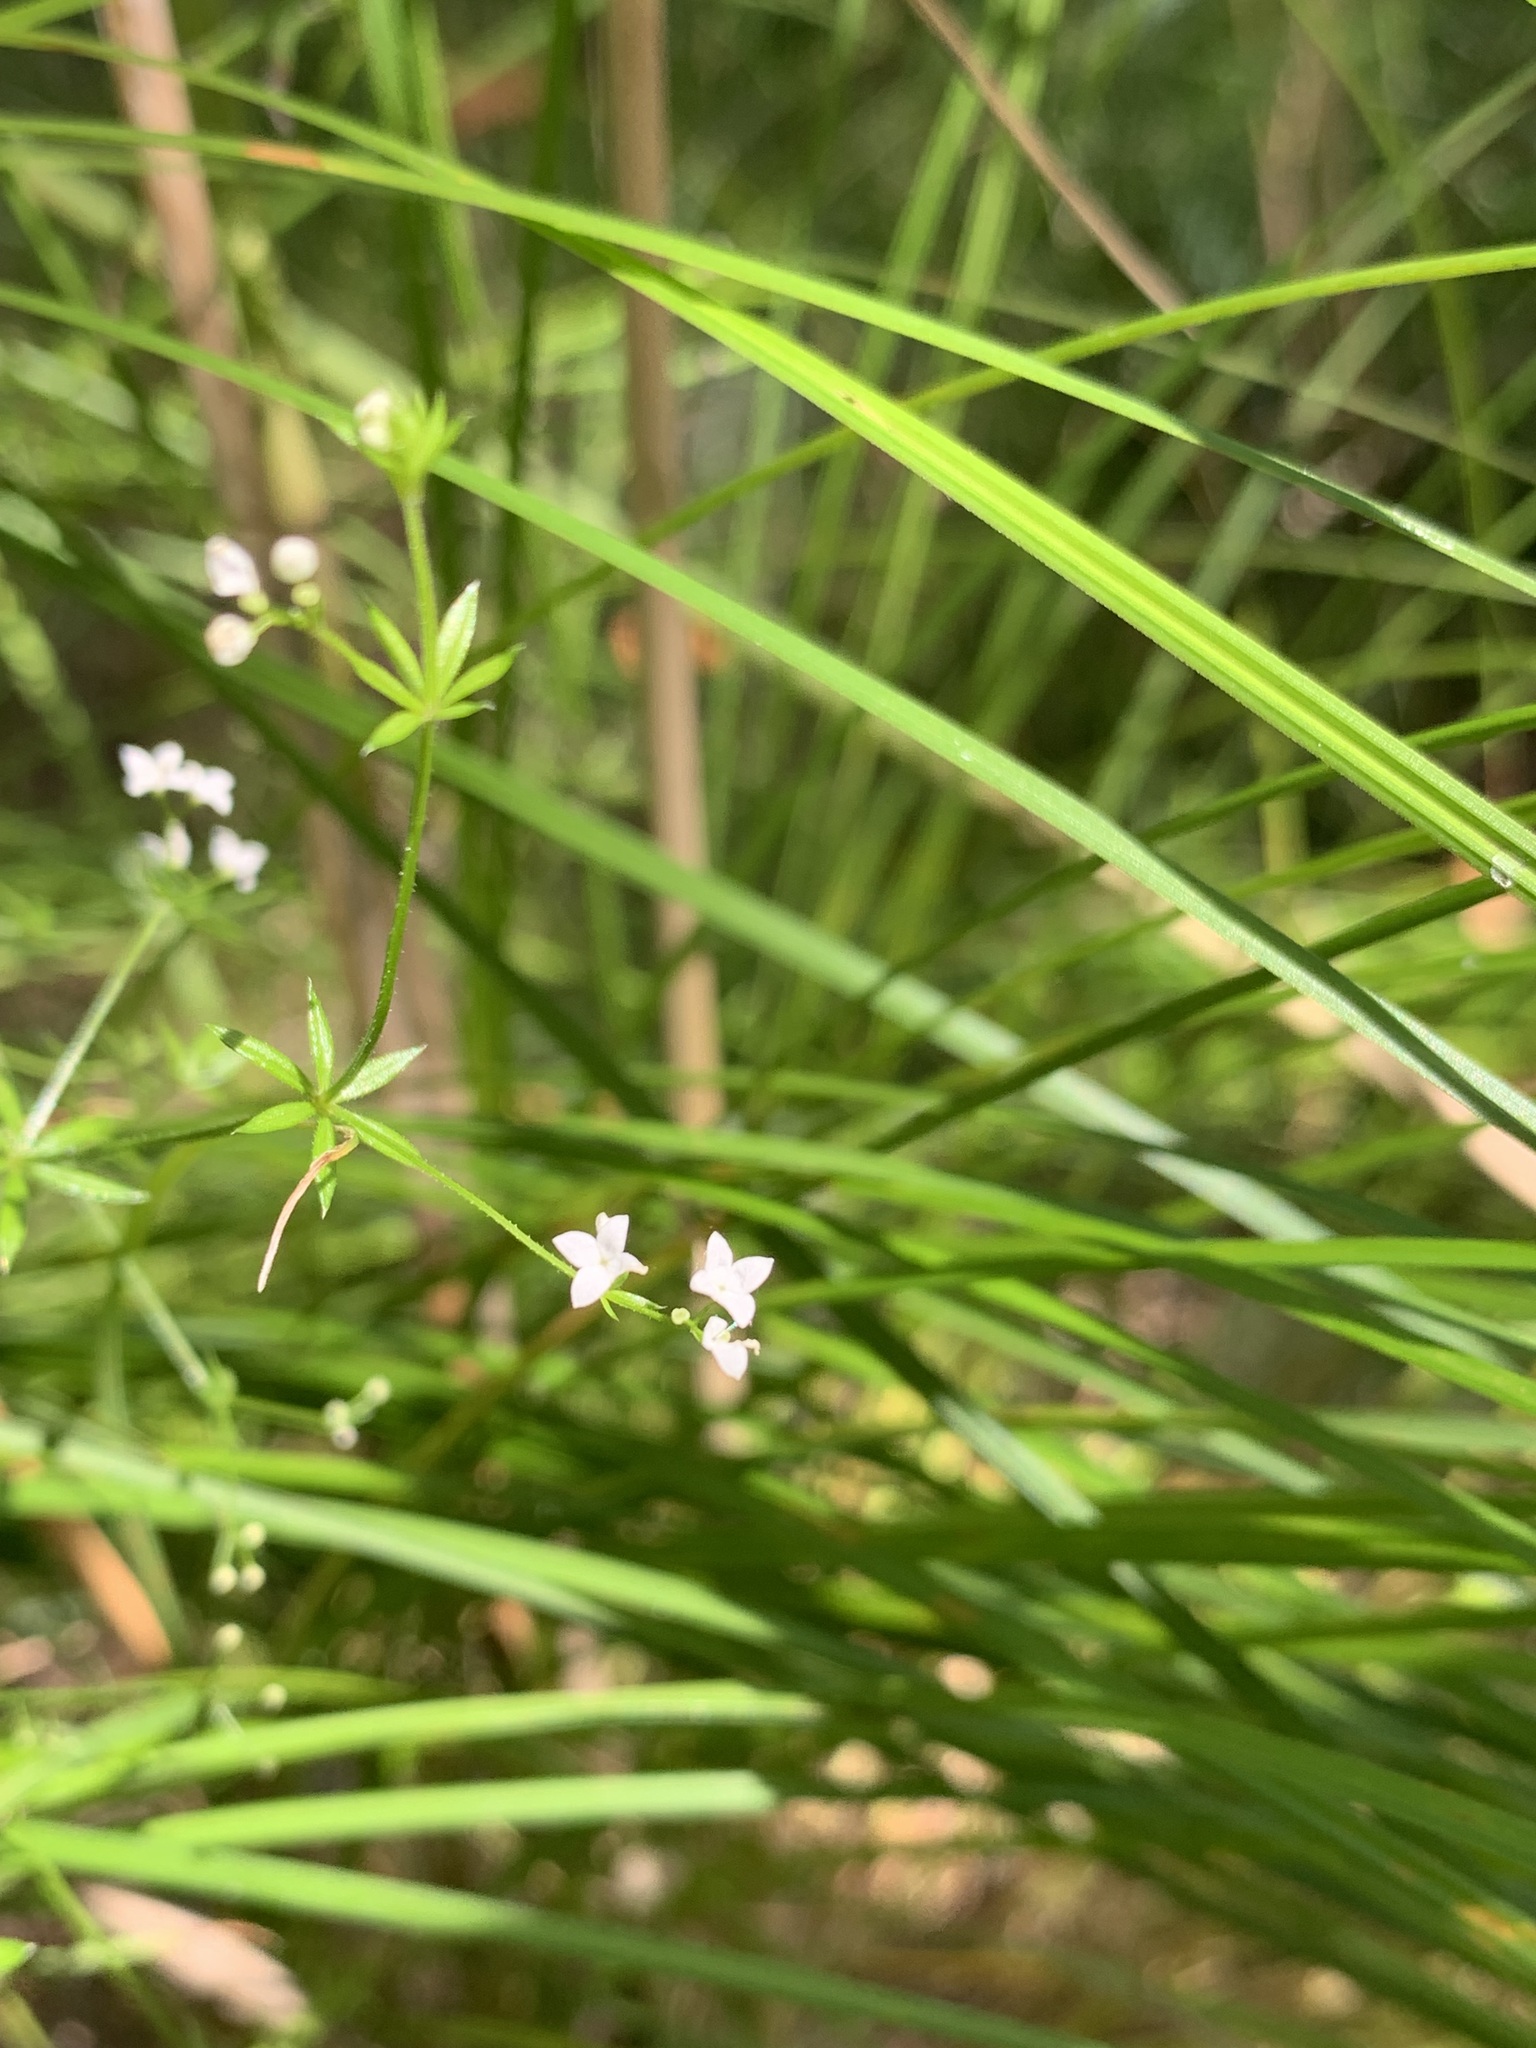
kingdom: Plantae
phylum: Tracheophyta
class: Magnoliopsida
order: Gentianales
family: Rubiaceae
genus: Galium
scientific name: Galium uliginosum
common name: Fen bedstraw
